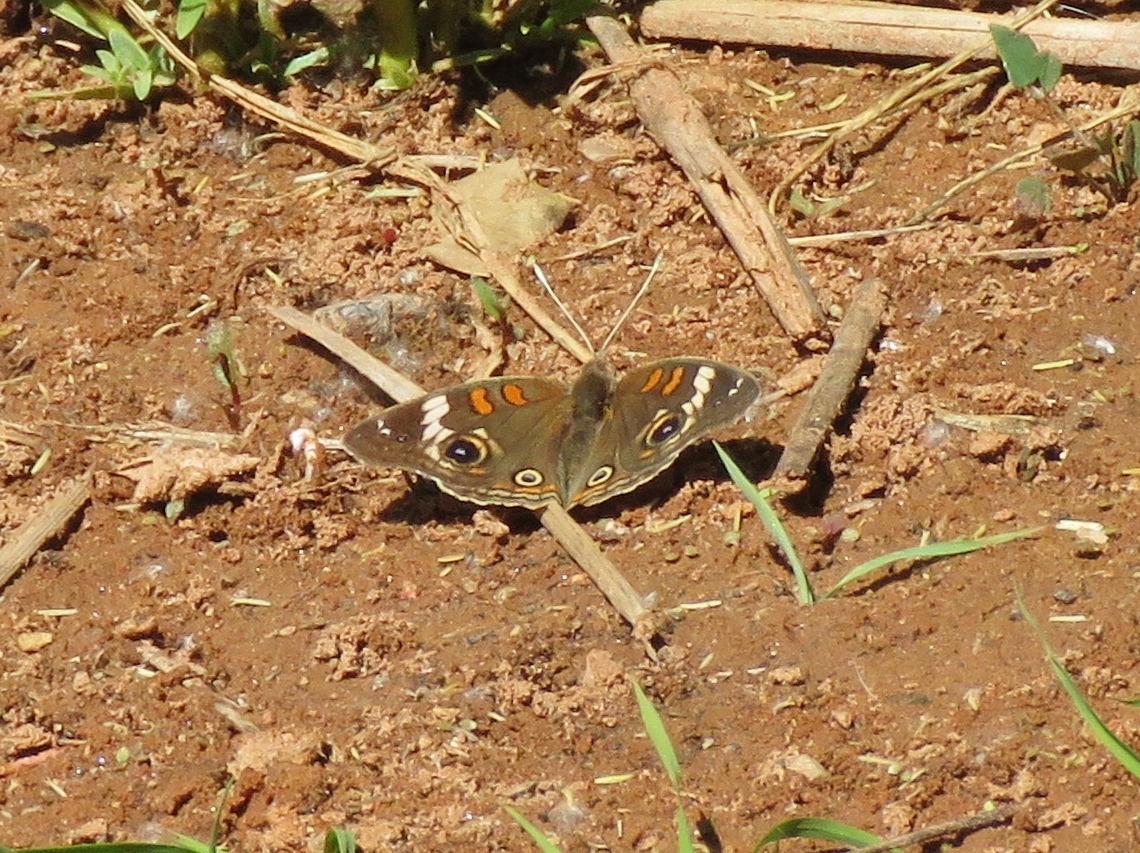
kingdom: Animalia
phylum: Arthropoda
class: Insecta
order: Lepidoptera
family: Nymphalidae
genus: Junonia
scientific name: Junonia grisea
